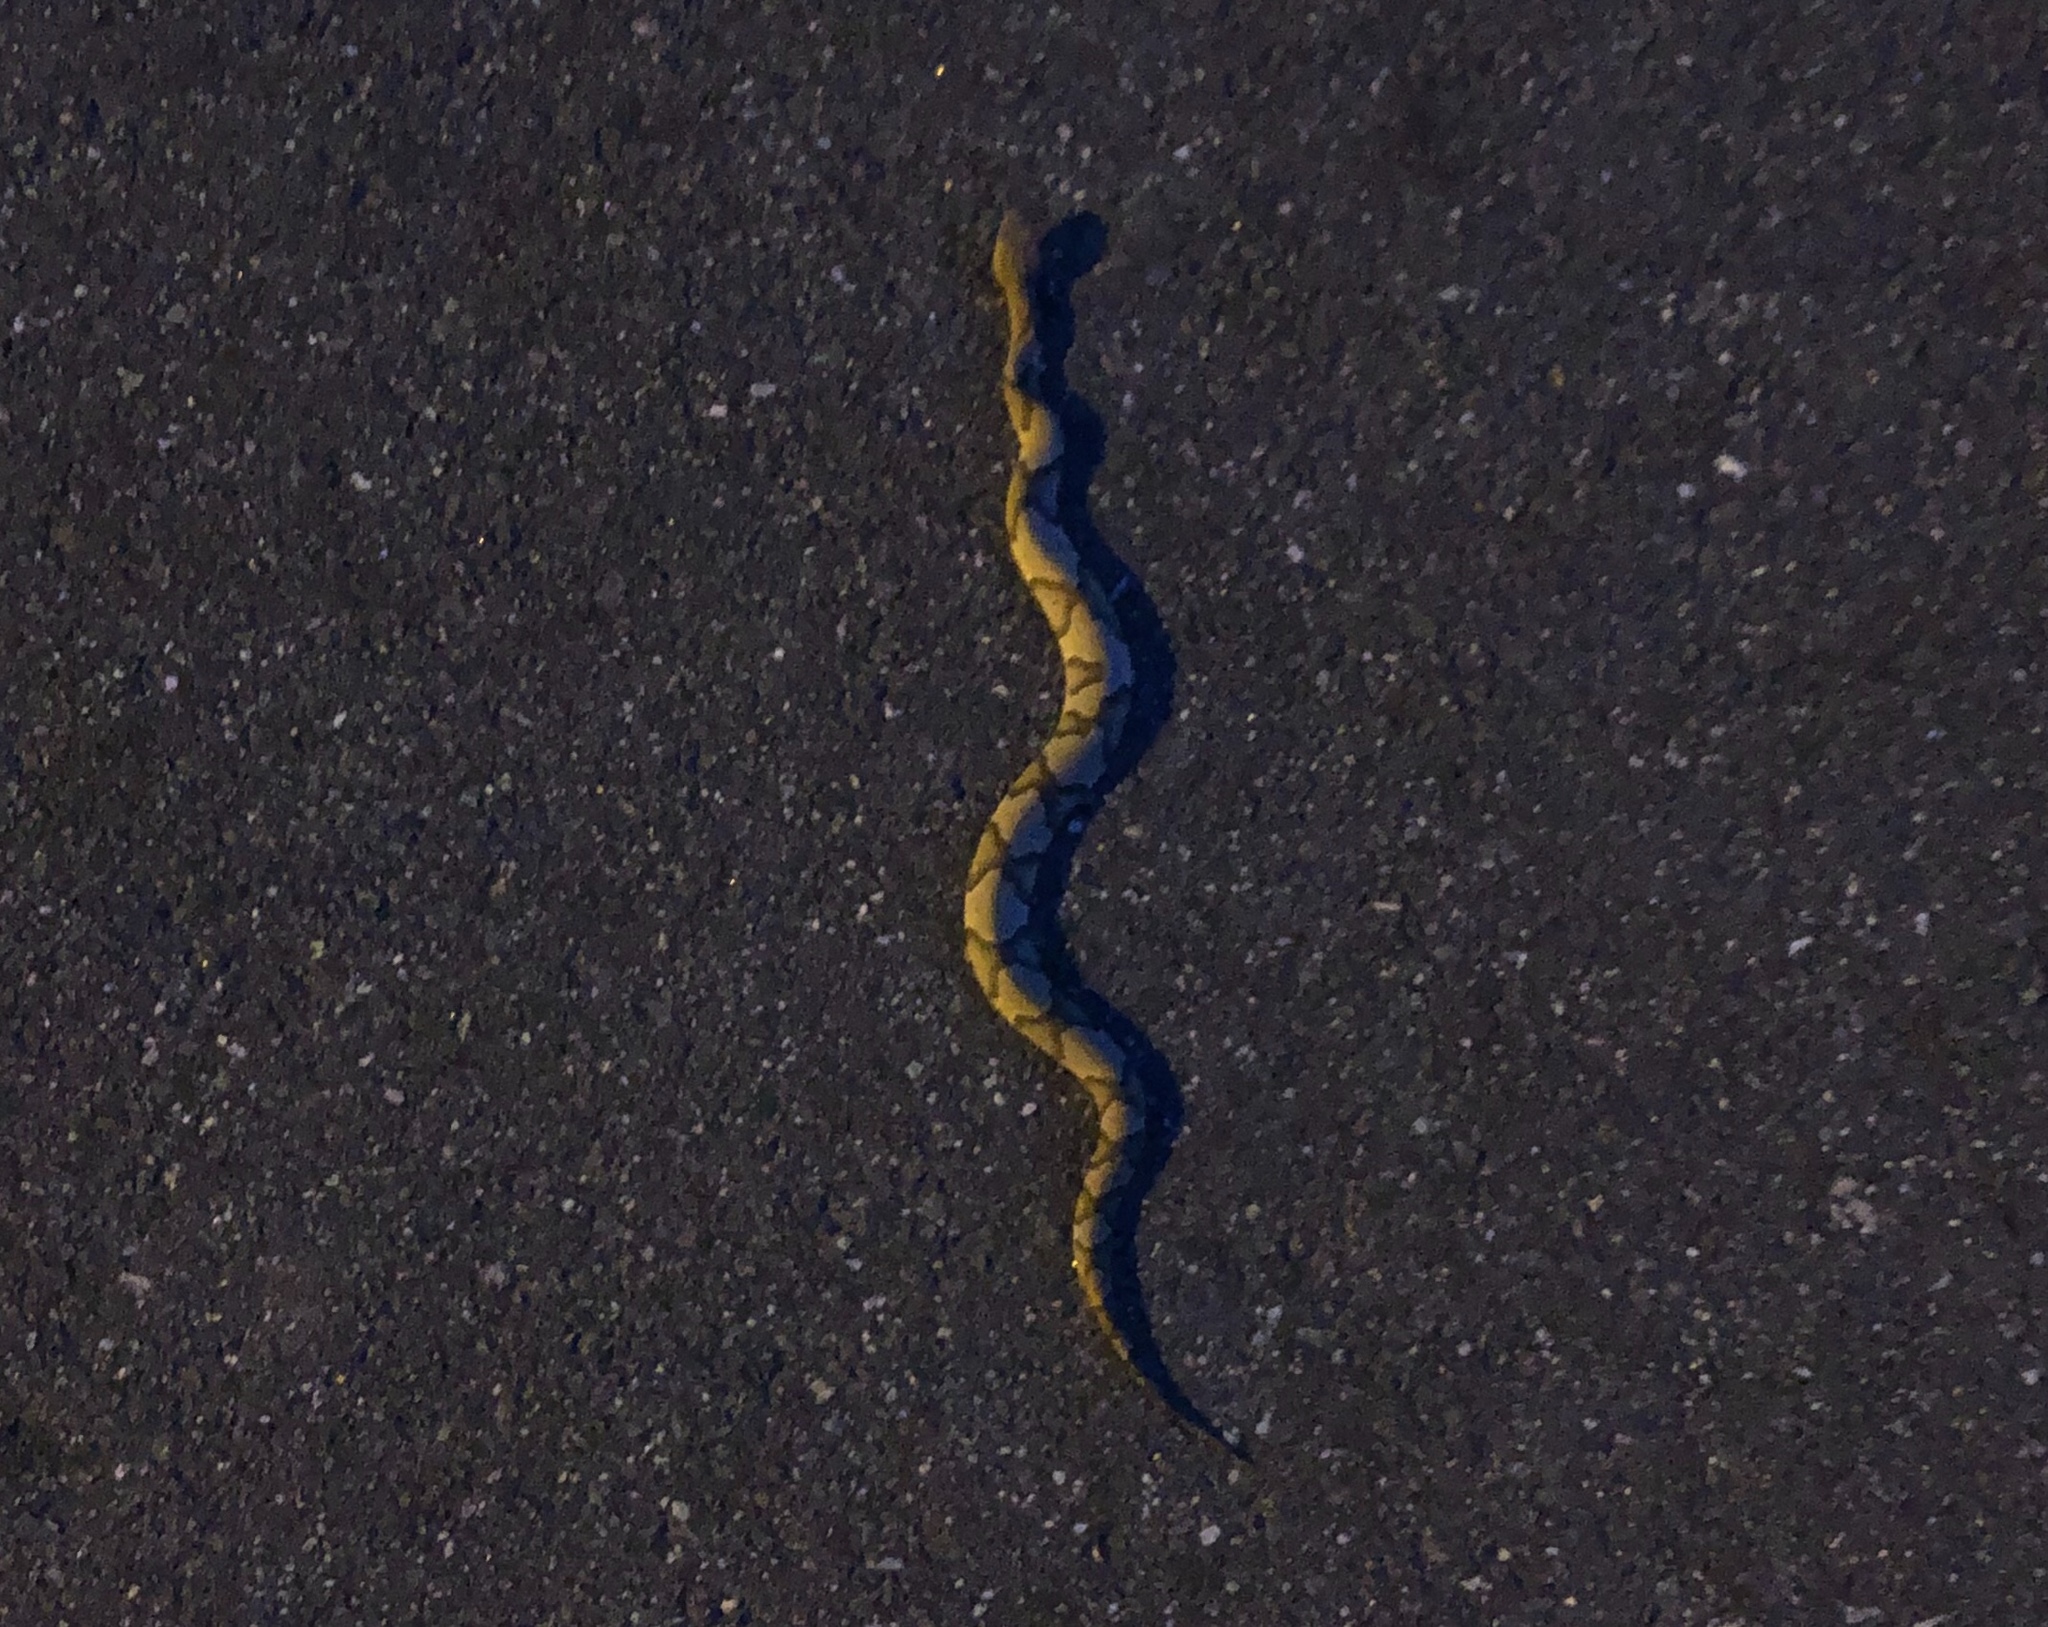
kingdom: Animalia
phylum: Chordata
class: Squamata
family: Viperidae
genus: Agkistrodon
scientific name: Agkistrodon contortrix
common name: Northern copperhead
